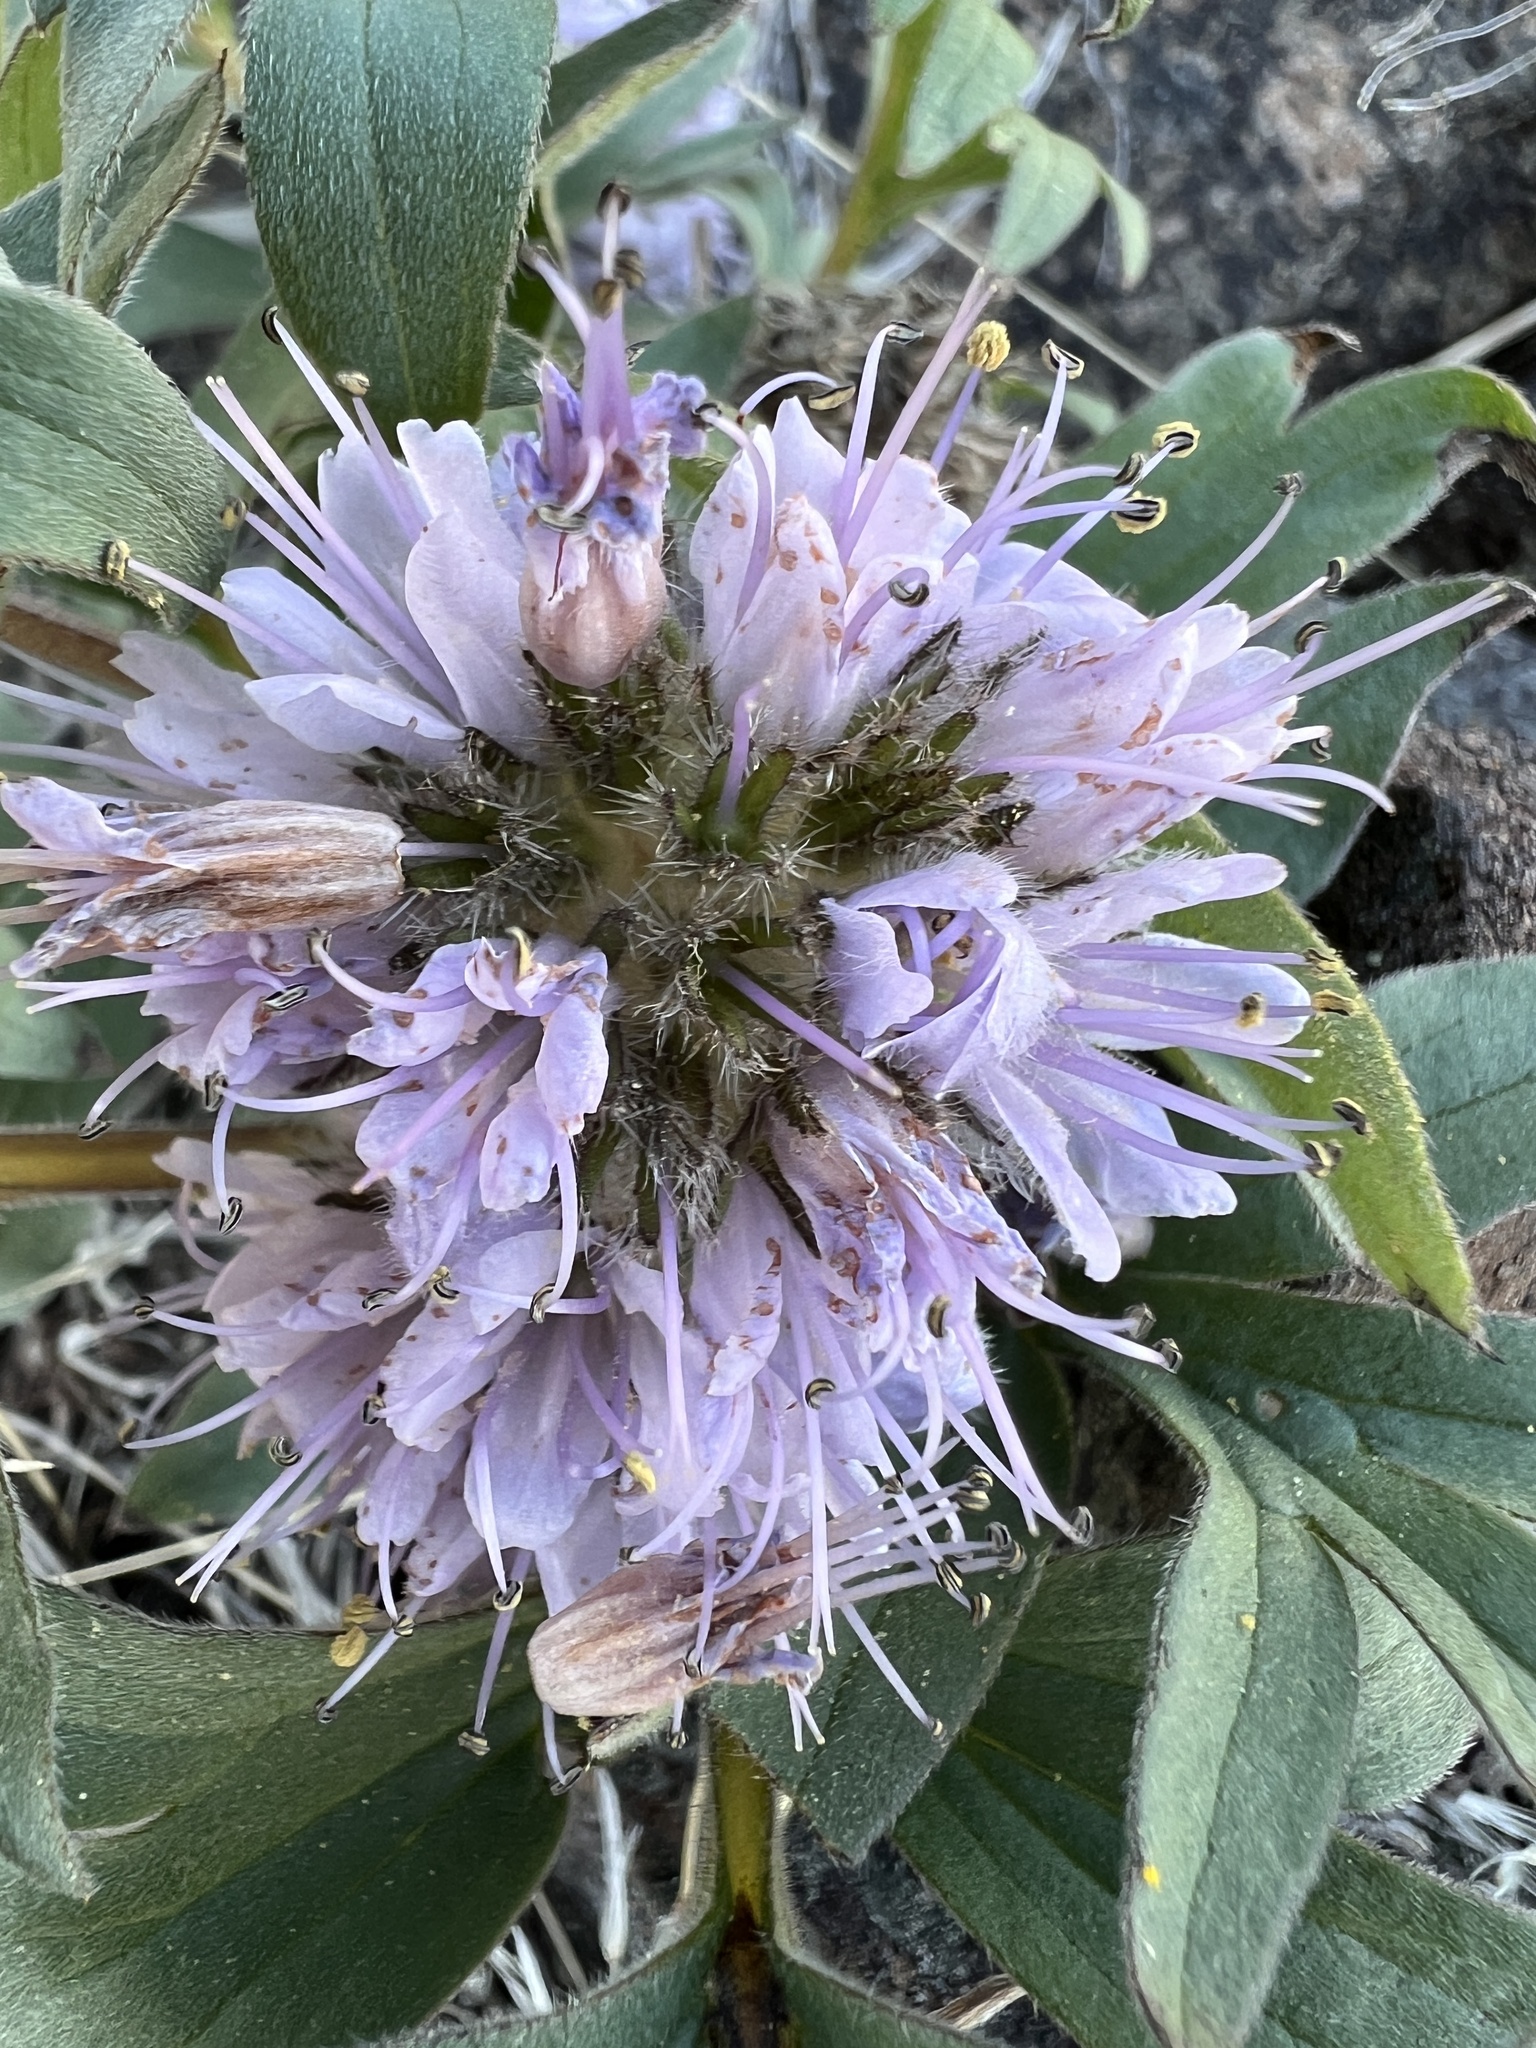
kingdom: Plantae
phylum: Tracheophyta
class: Magnoliopsida
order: Boraginales
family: Hydrophyllaceae
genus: Hydrophyllum
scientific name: Hydrophyllum capitatum
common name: Woollen-breeches
